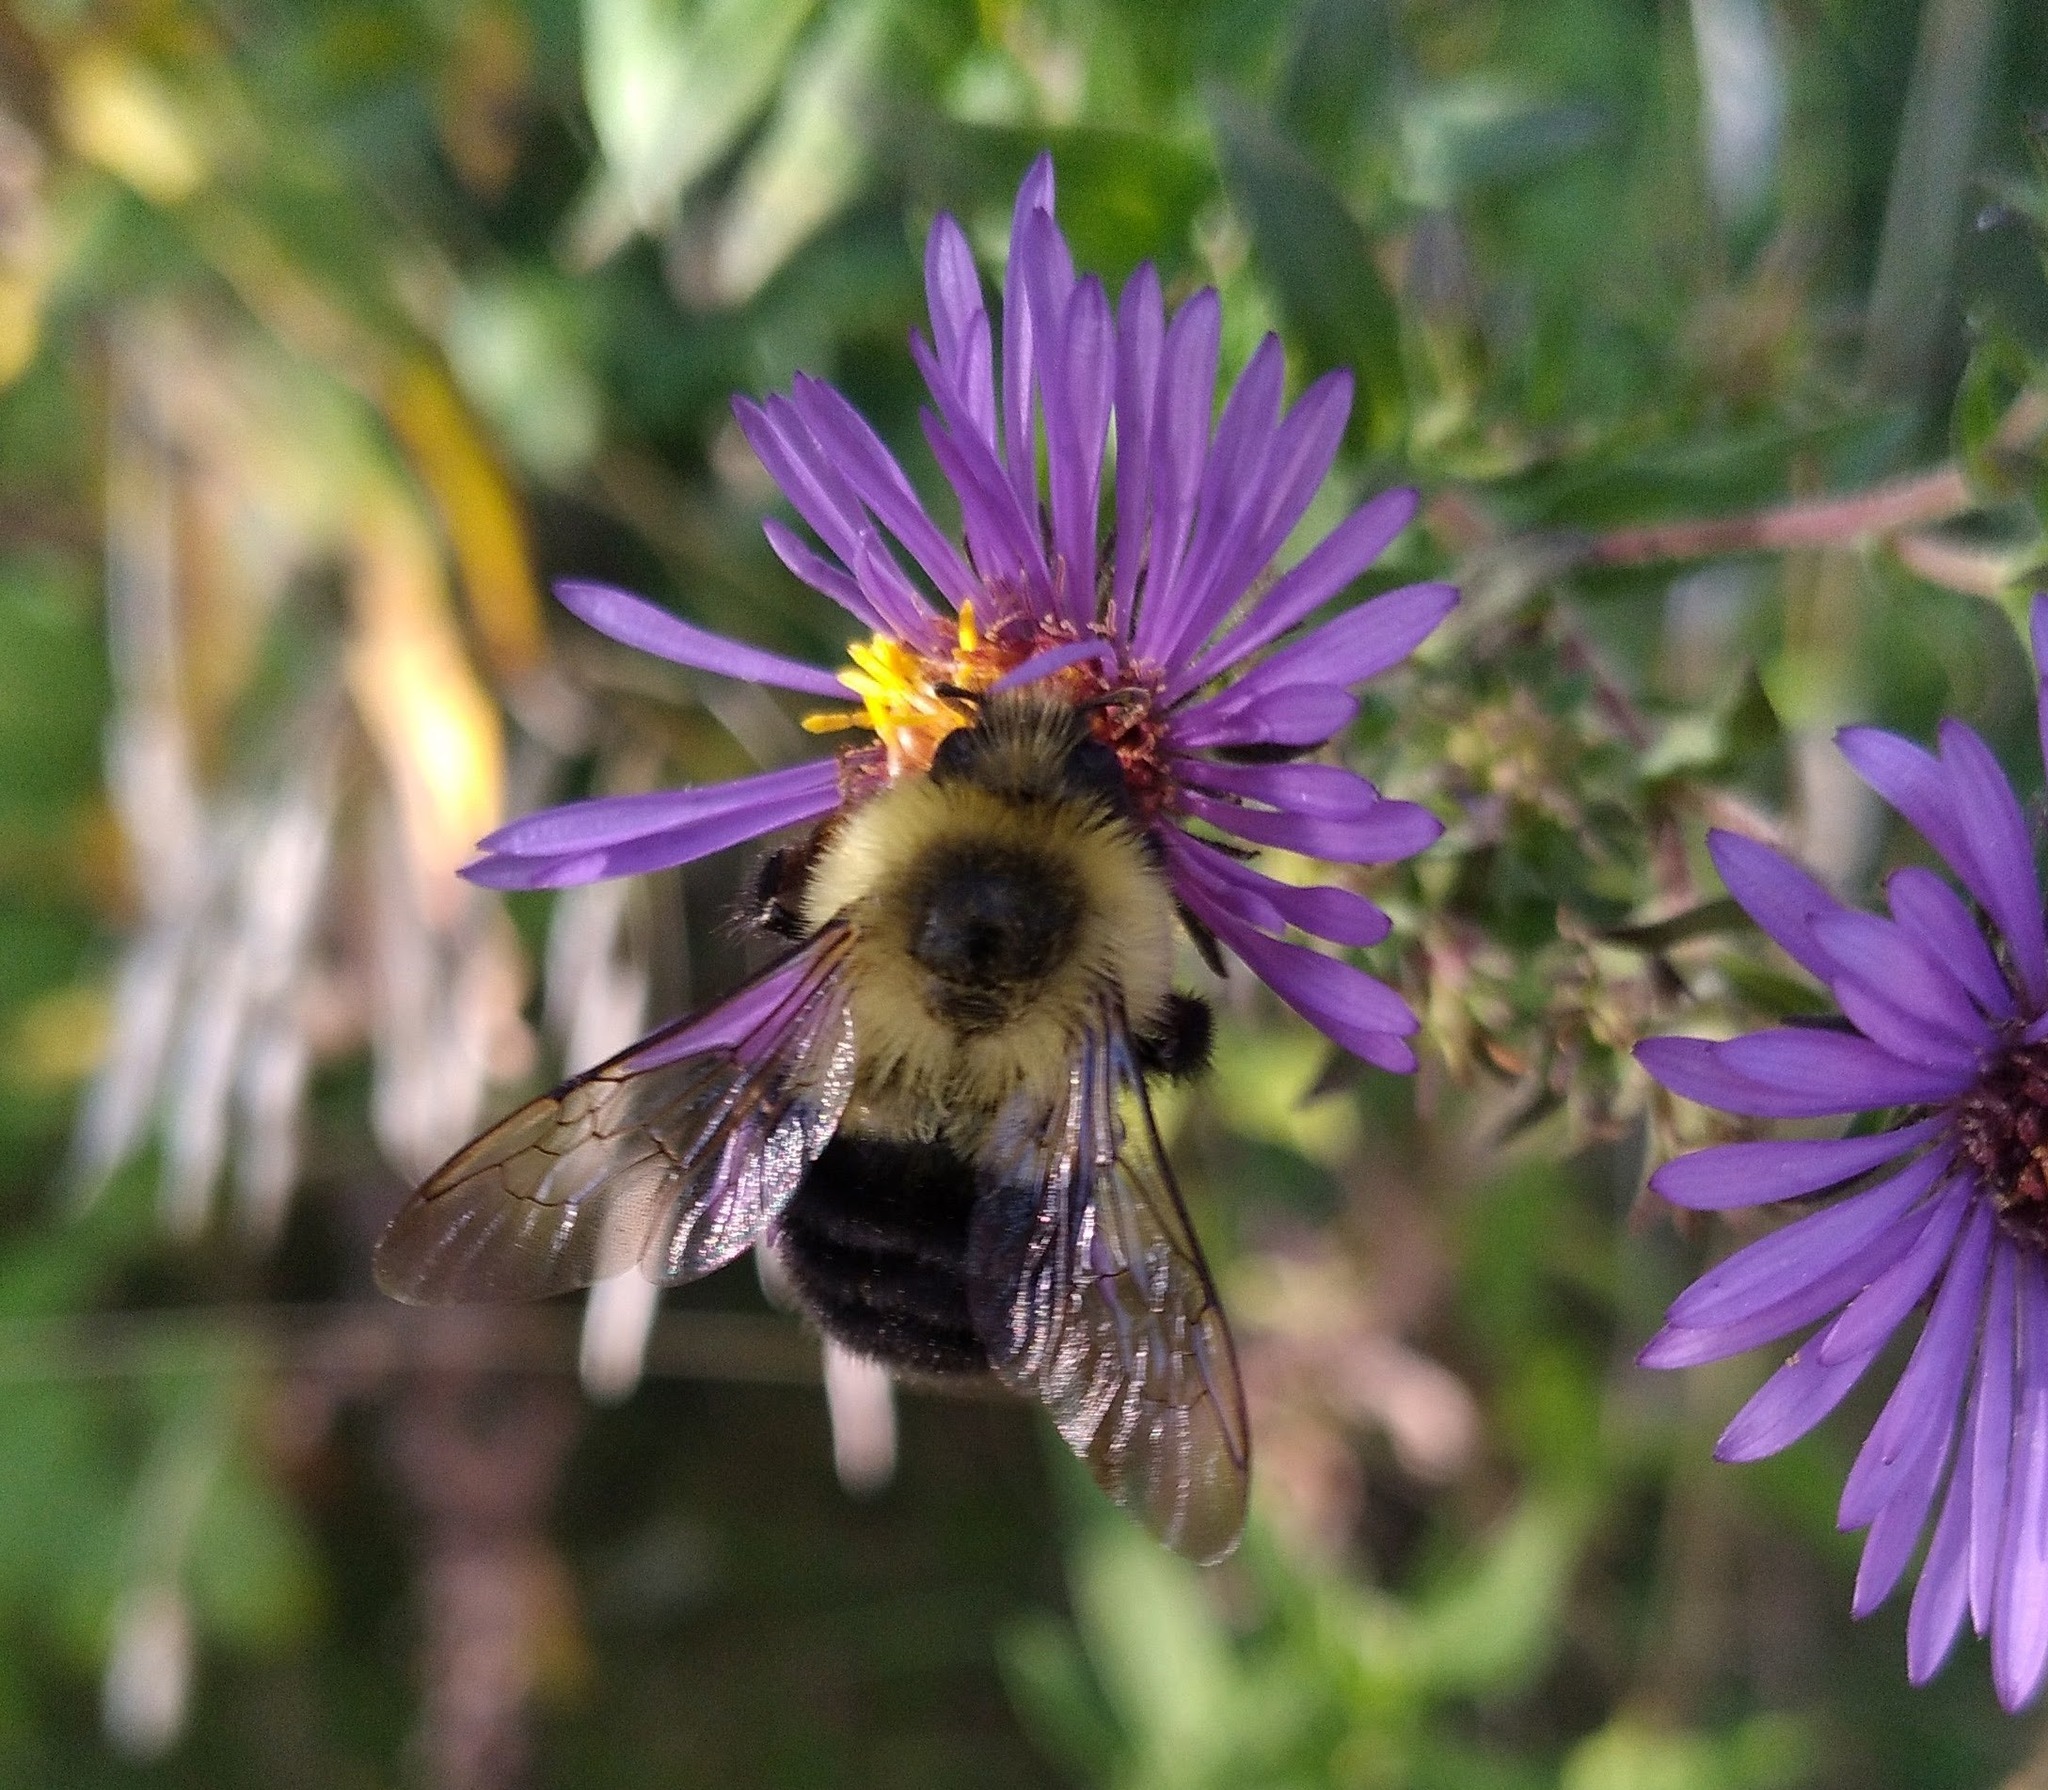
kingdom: Animalia
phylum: Arthropoda
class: Insecta
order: Hymenoptera
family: Apidae
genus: Bombus
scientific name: Bombus impatiens
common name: Common eastern bumble bee
